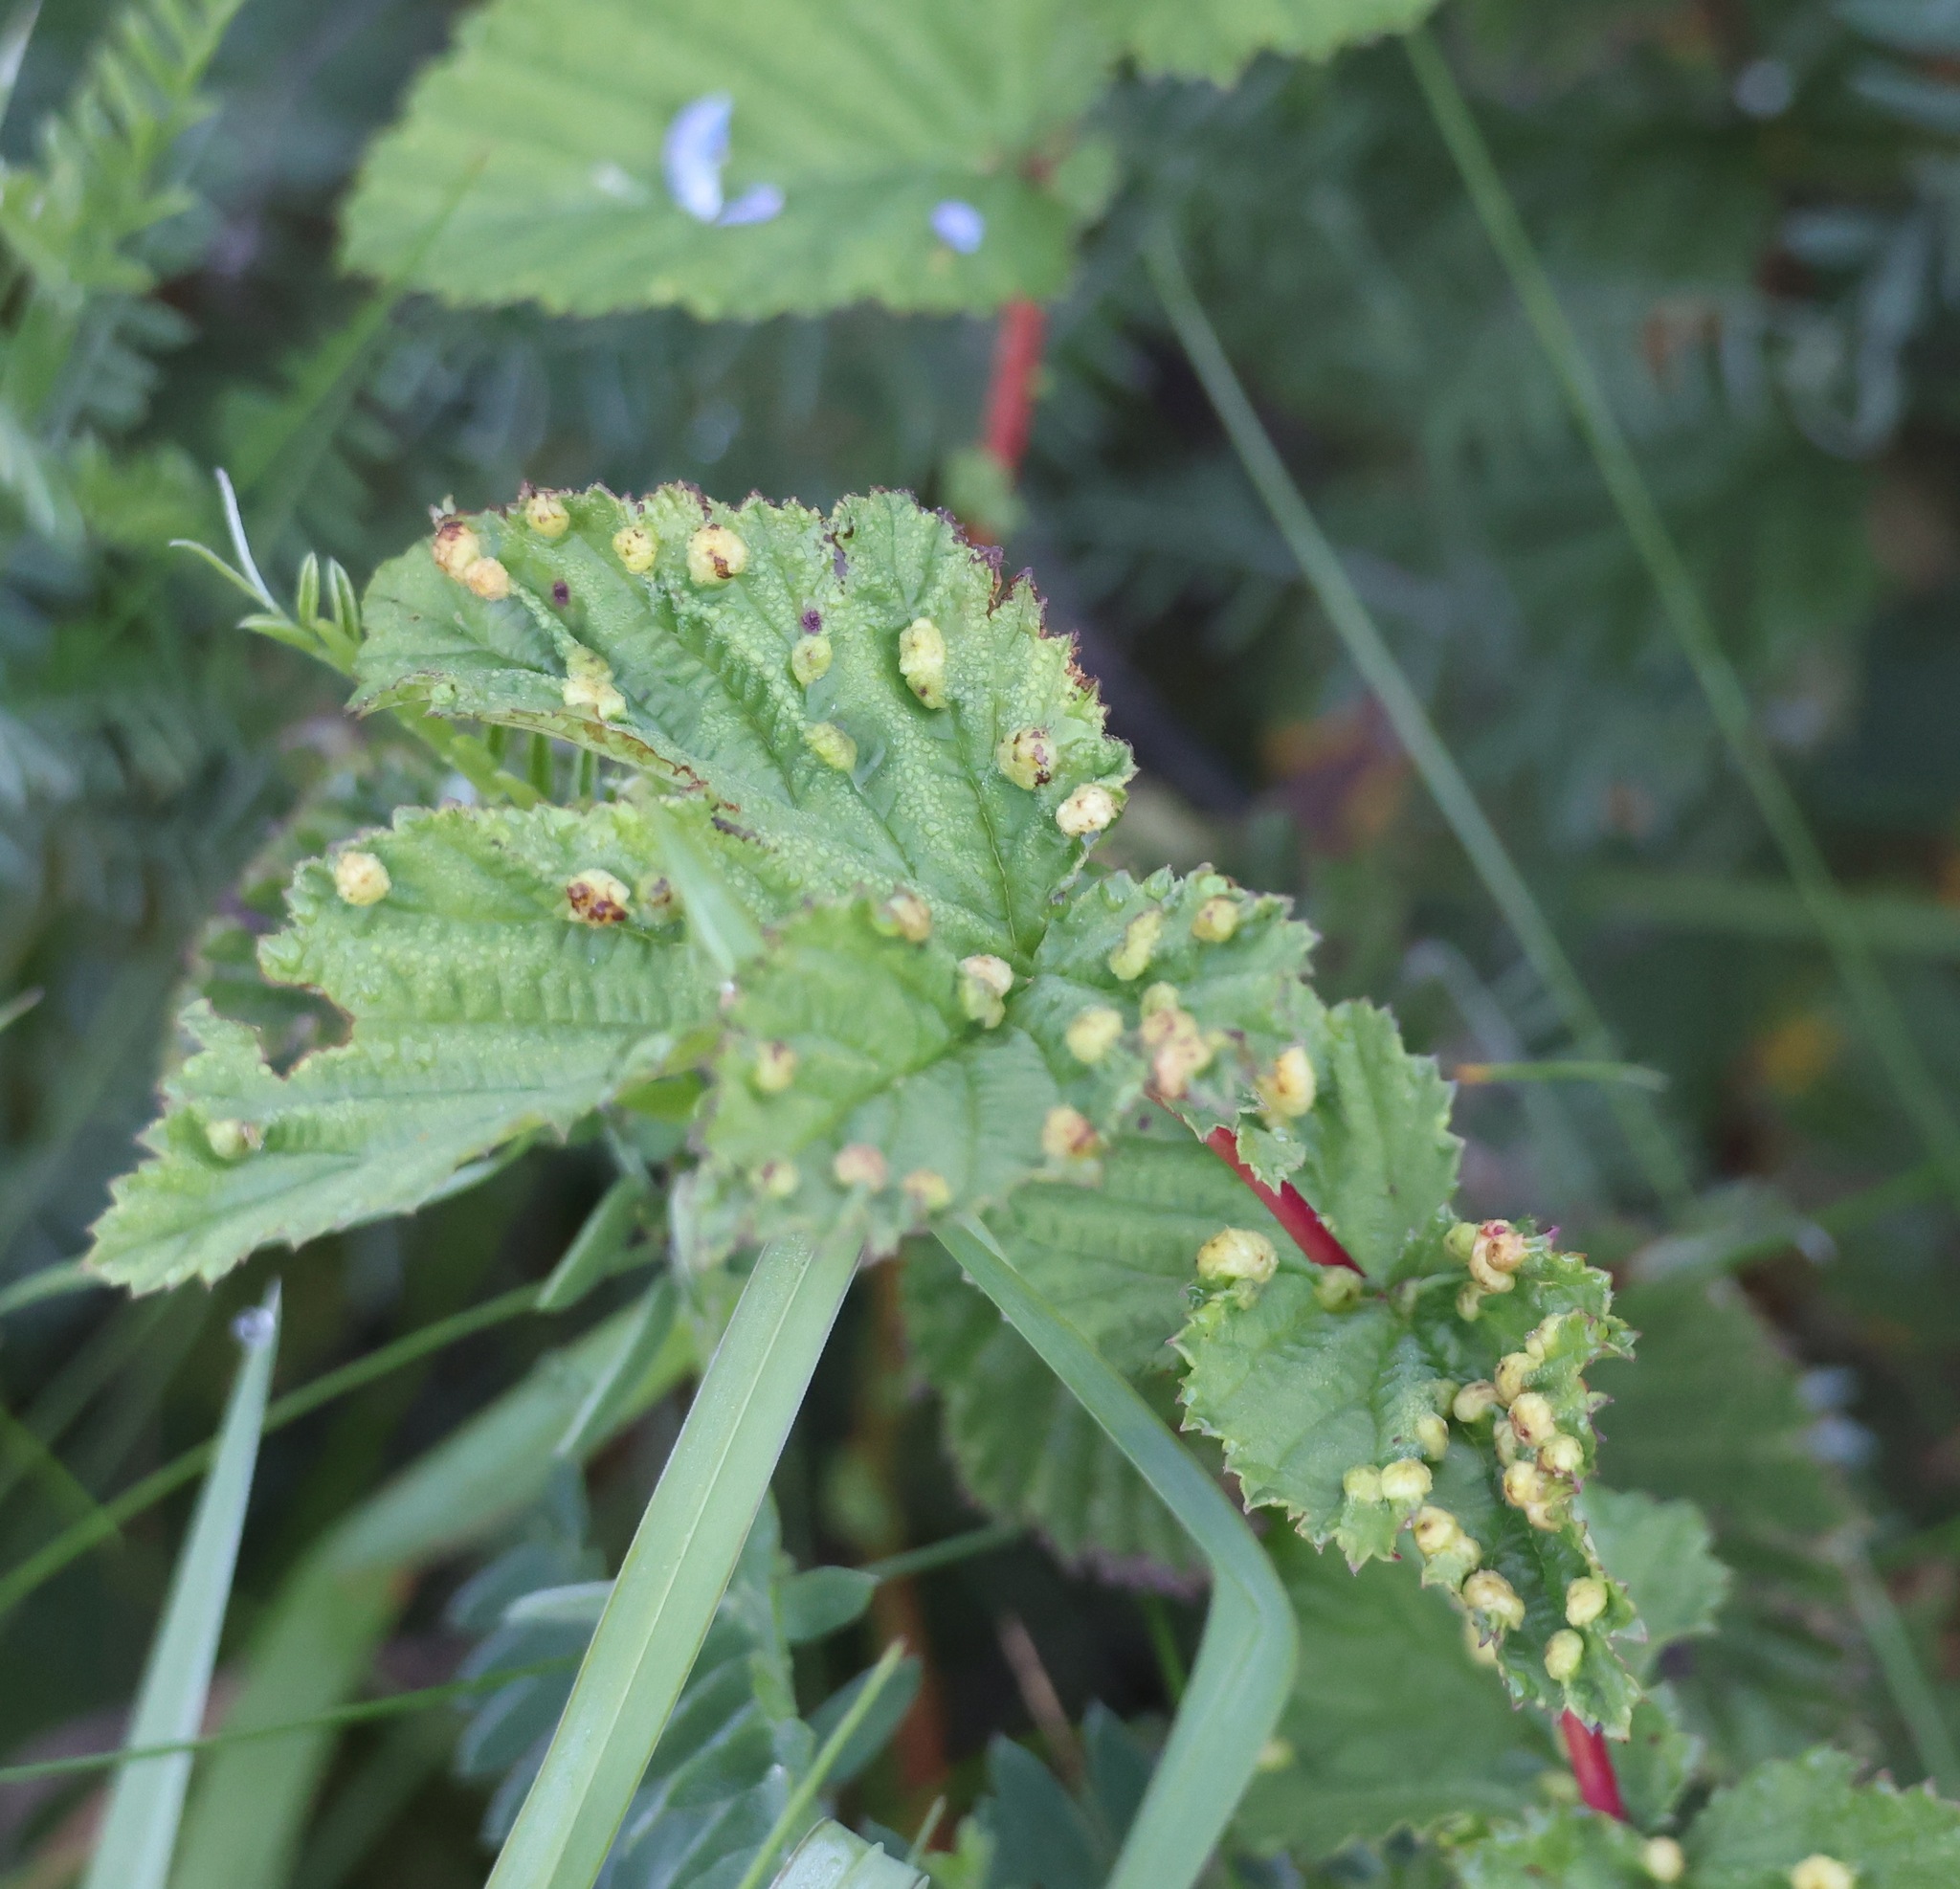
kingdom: Animalia
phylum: Arthropoda
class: Insecta
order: Diptera
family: Cecidomyiidae
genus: Dasineura
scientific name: Dasineura ulmaria
